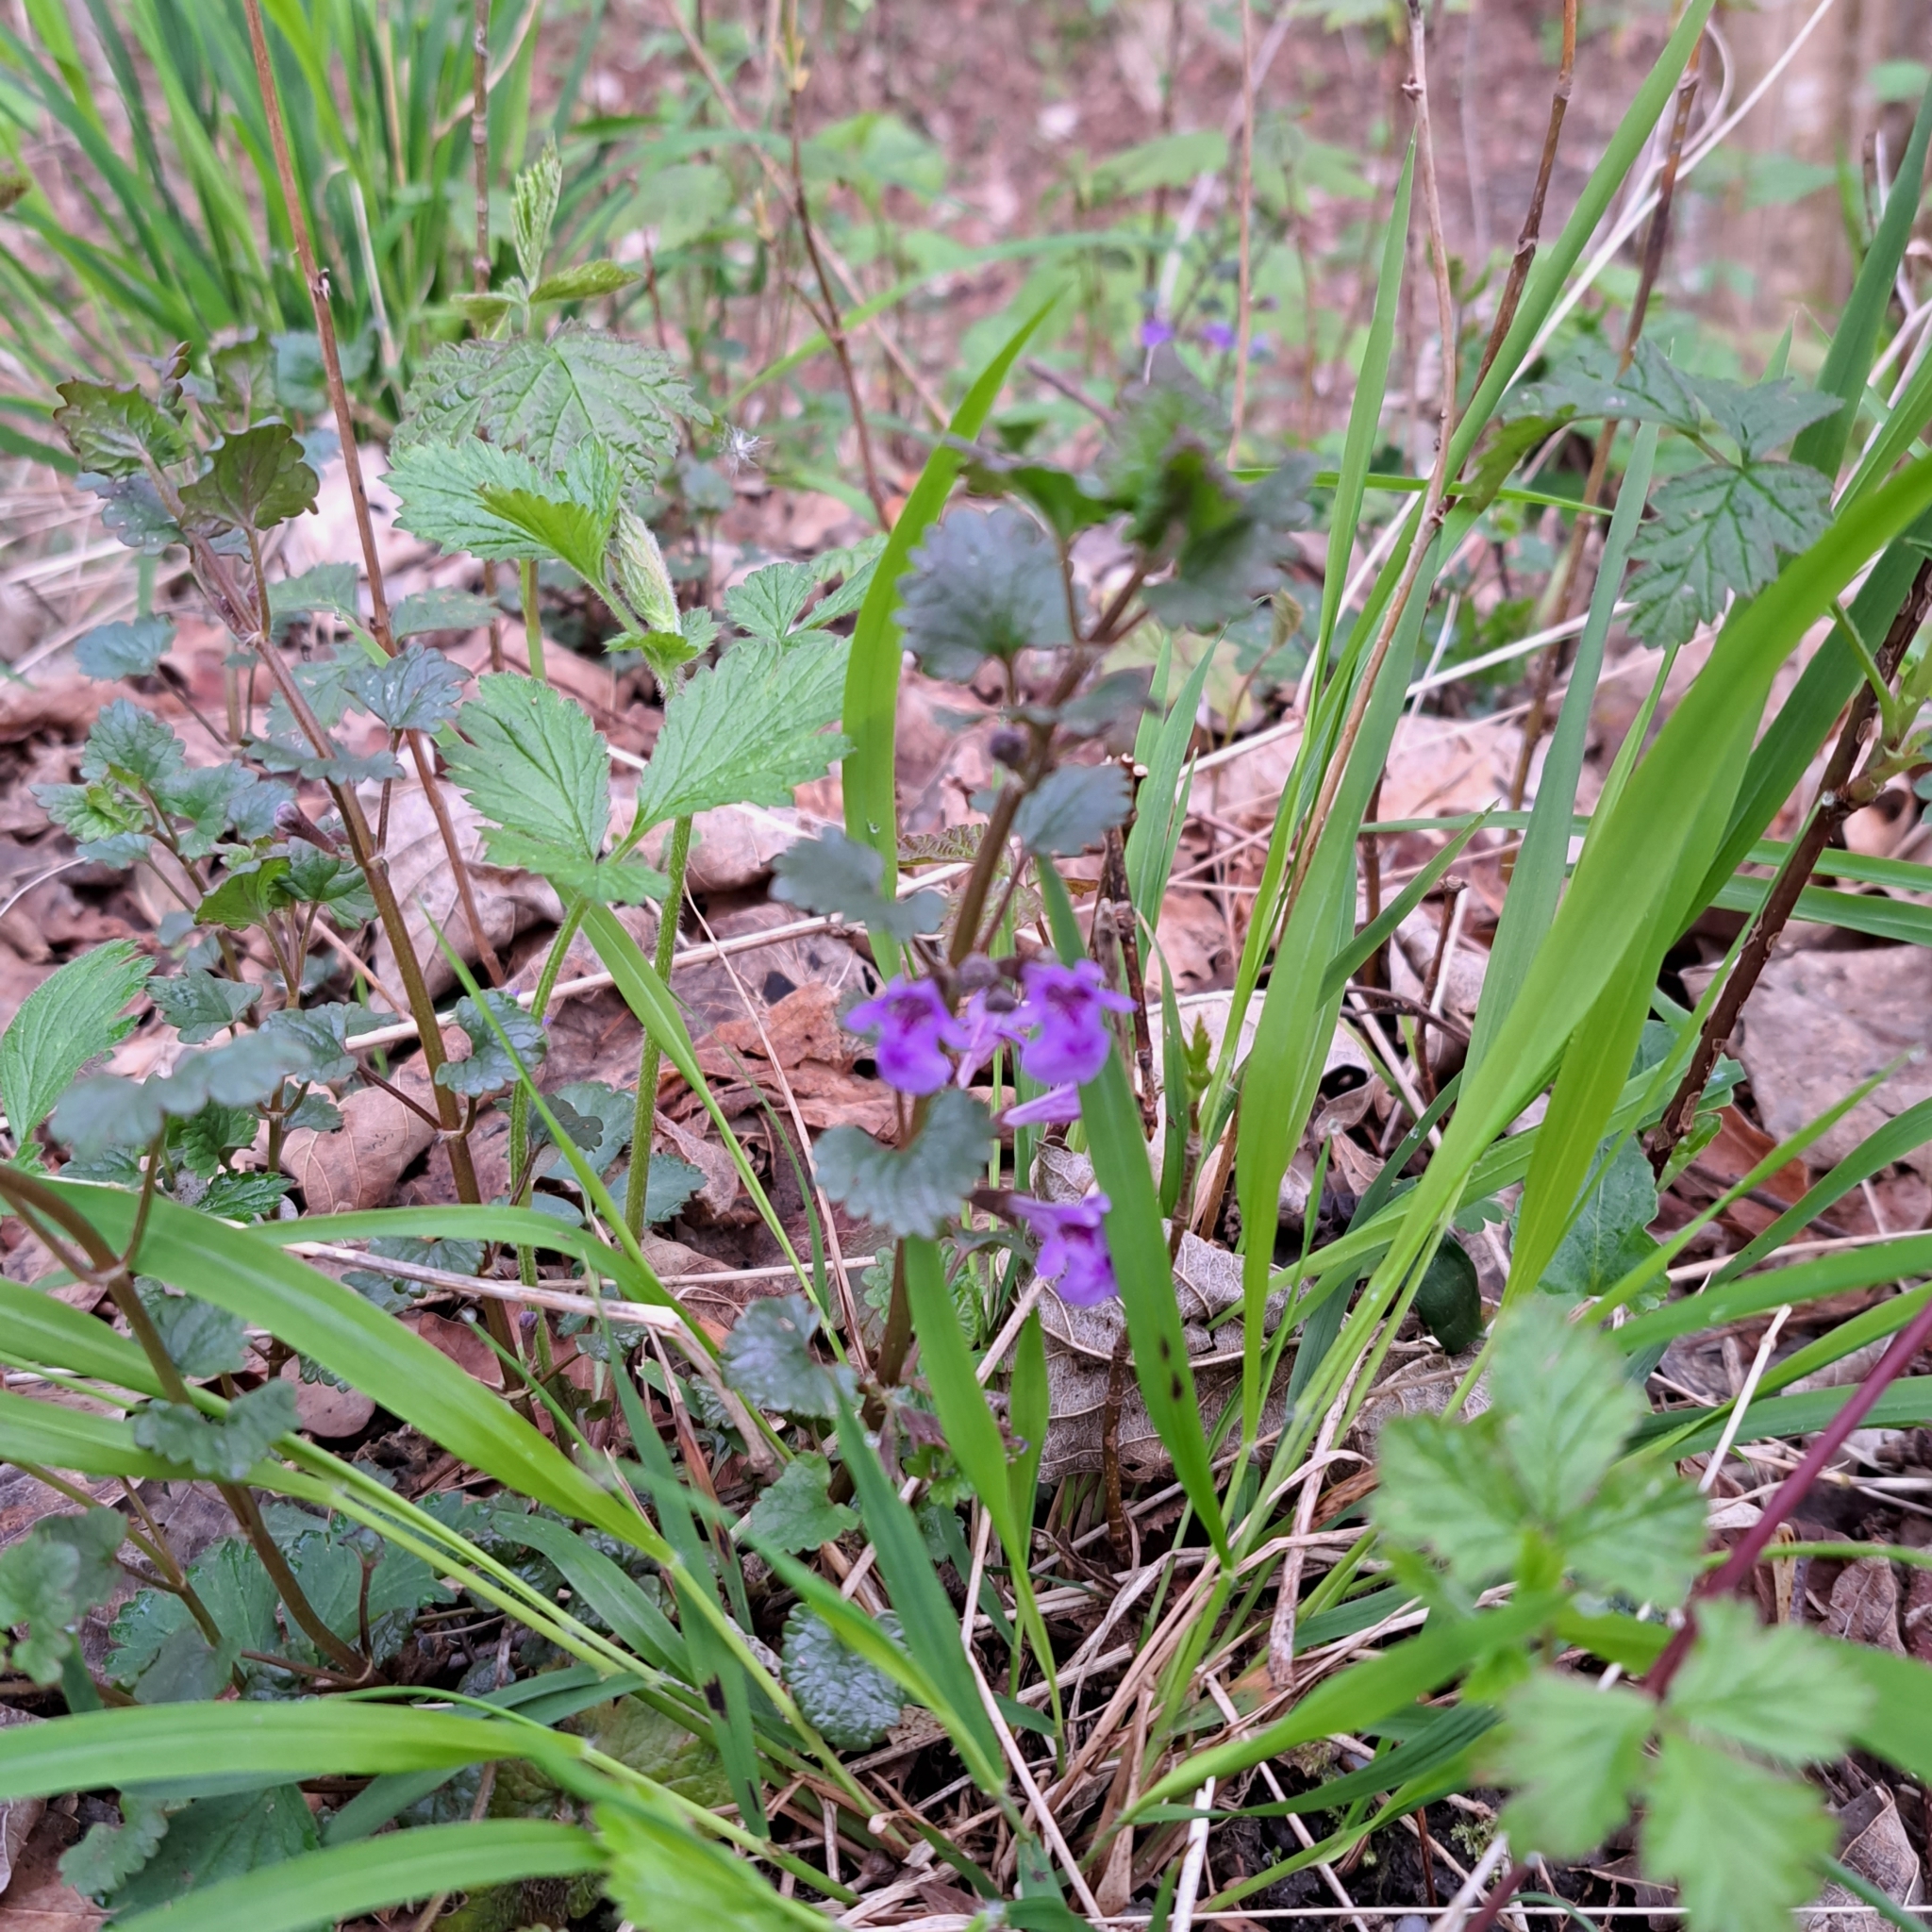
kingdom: Plantae
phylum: Tracheophyta
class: Magnoliopsida
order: Lamiales
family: Lamiaceae
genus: Glechoma
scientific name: Glechoma hederacea
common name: Ground ivy
